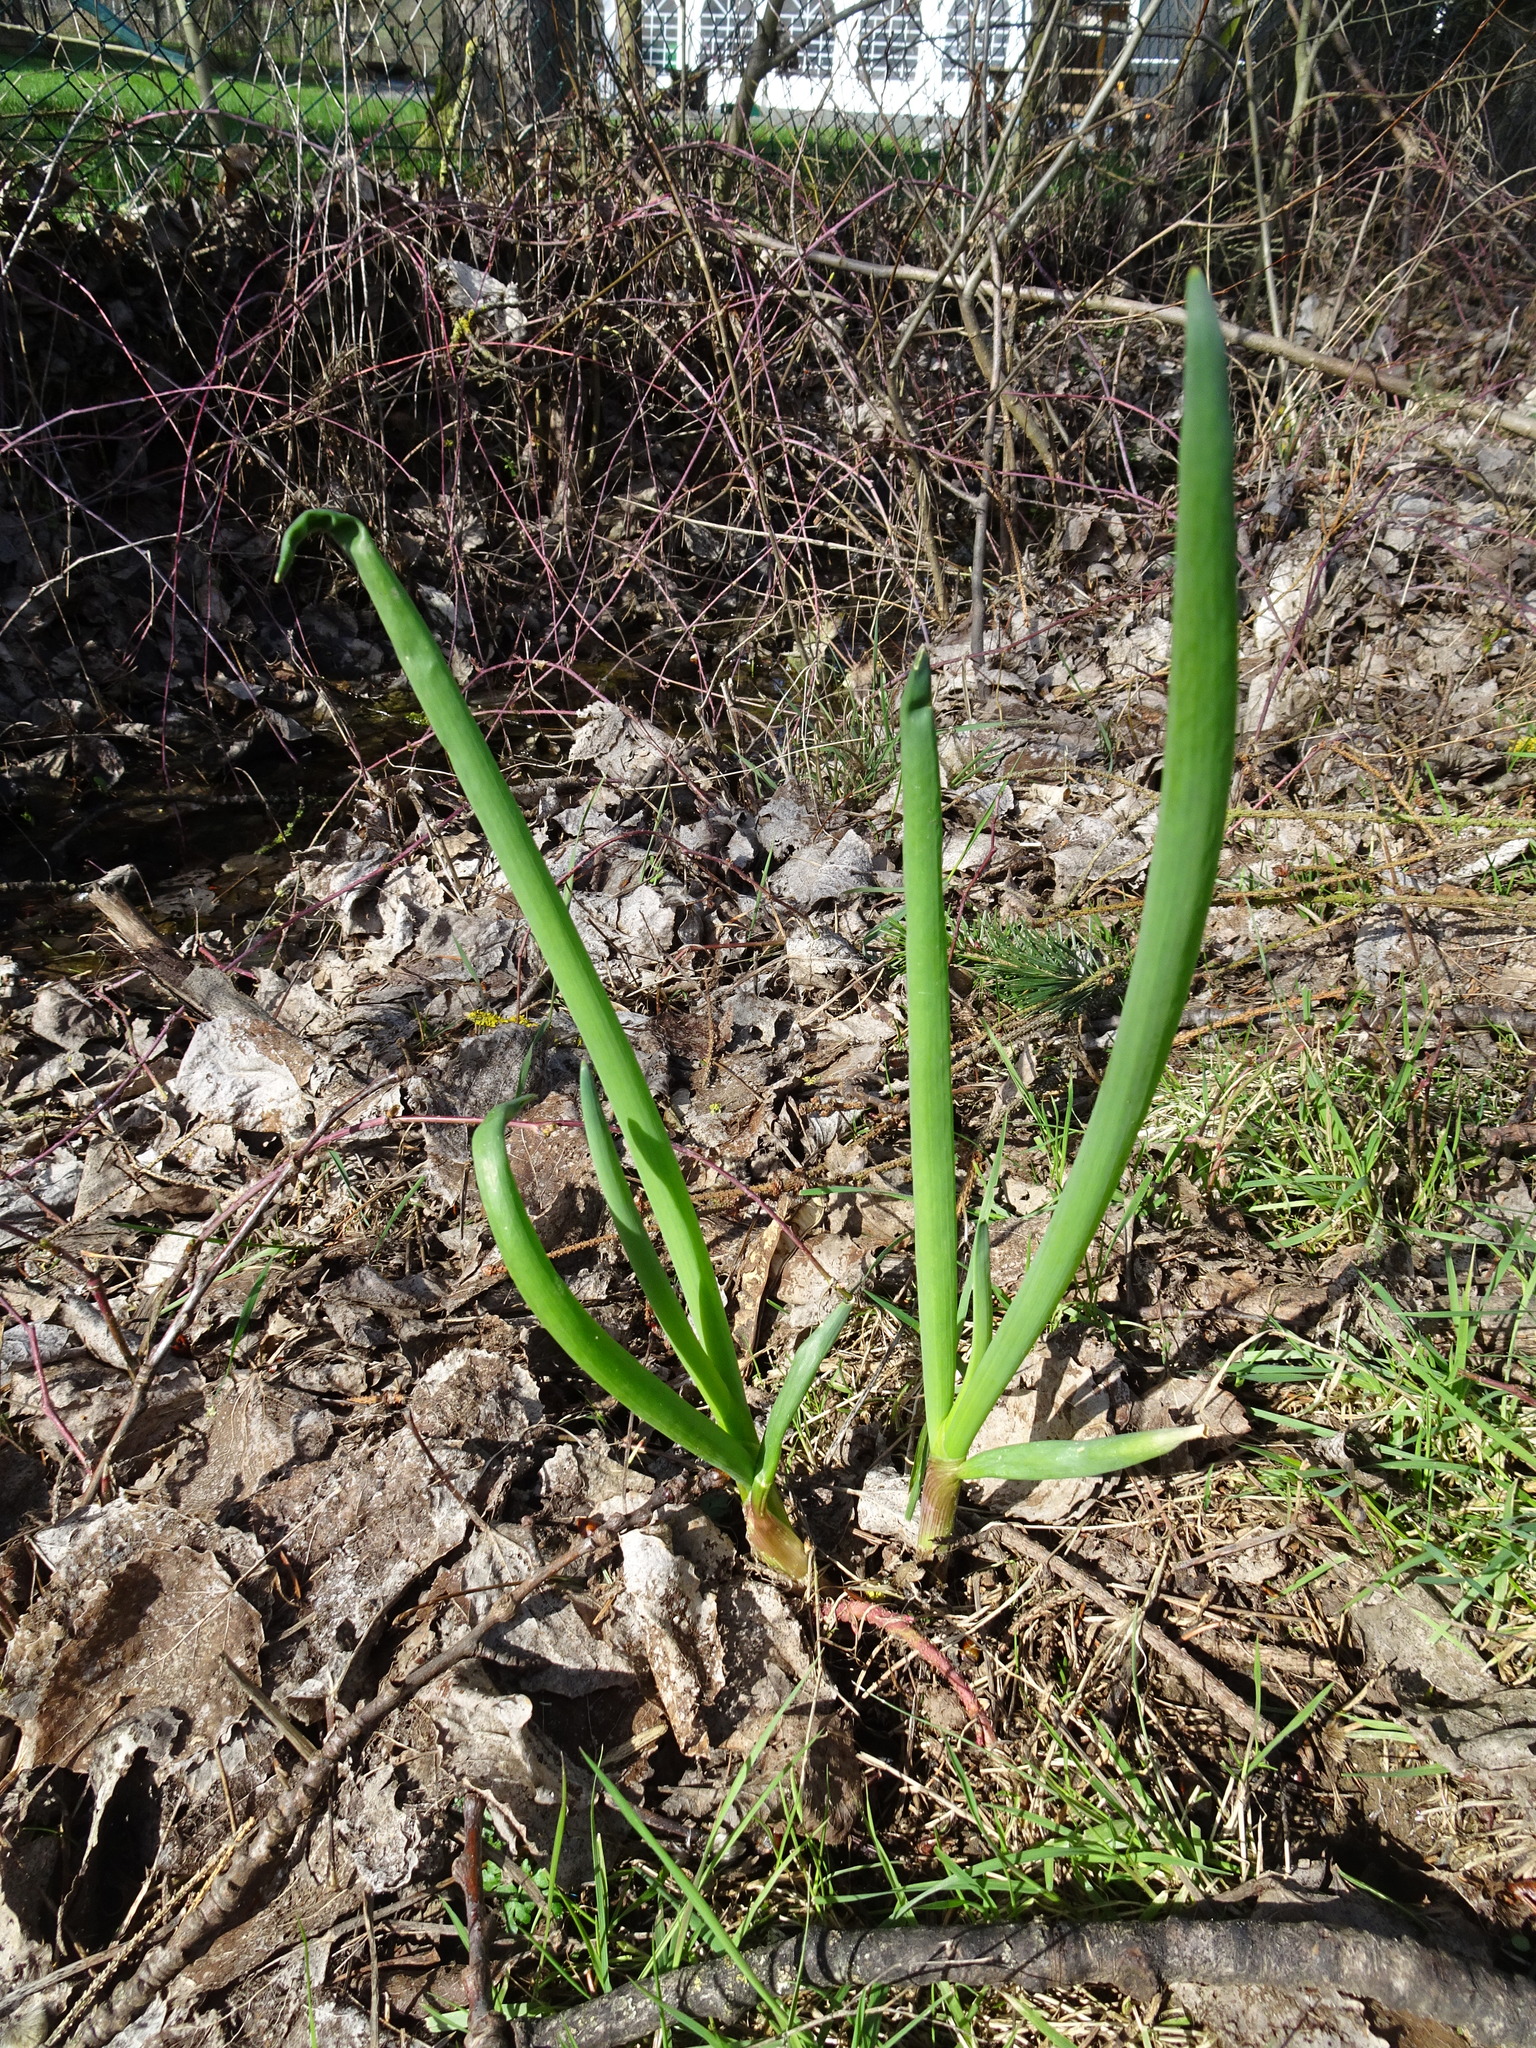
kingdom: Plantae
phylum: Tracheophyta
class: Liliopsida
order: Asparagales
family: Amaryllidaceae
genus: Allium
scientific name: Allium cepa
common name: Onion
